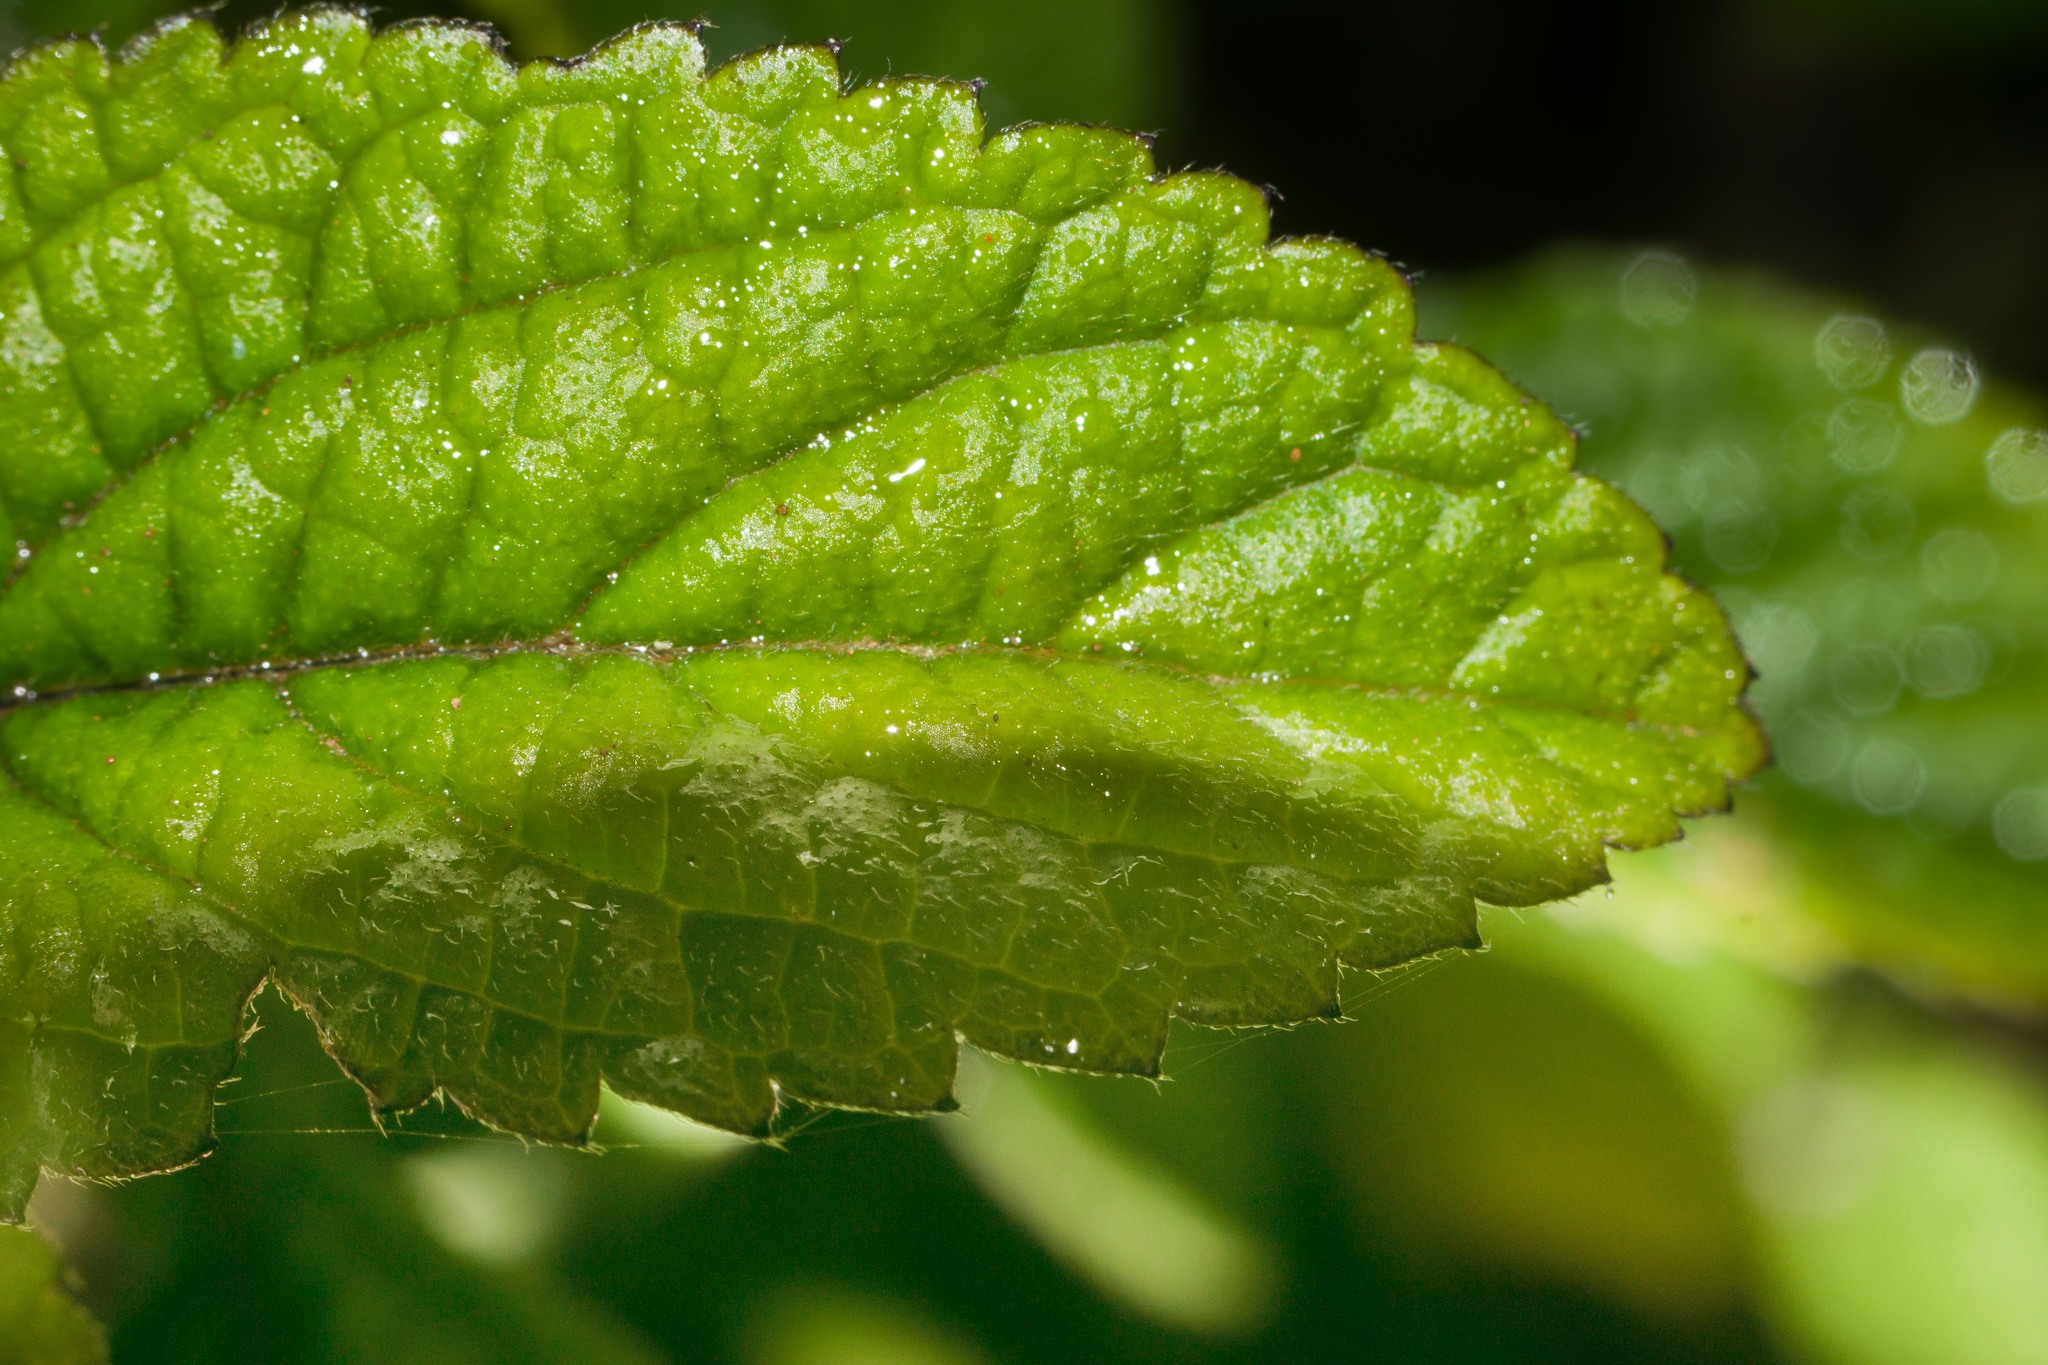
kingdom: Plantae
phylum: Tracheophyta
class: Magnoliopsida
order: Lamiales
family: Verbenaceae
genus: Stachytarpheta
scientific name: Stachytarpheta cayennensis
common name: Cayenne porterweed
